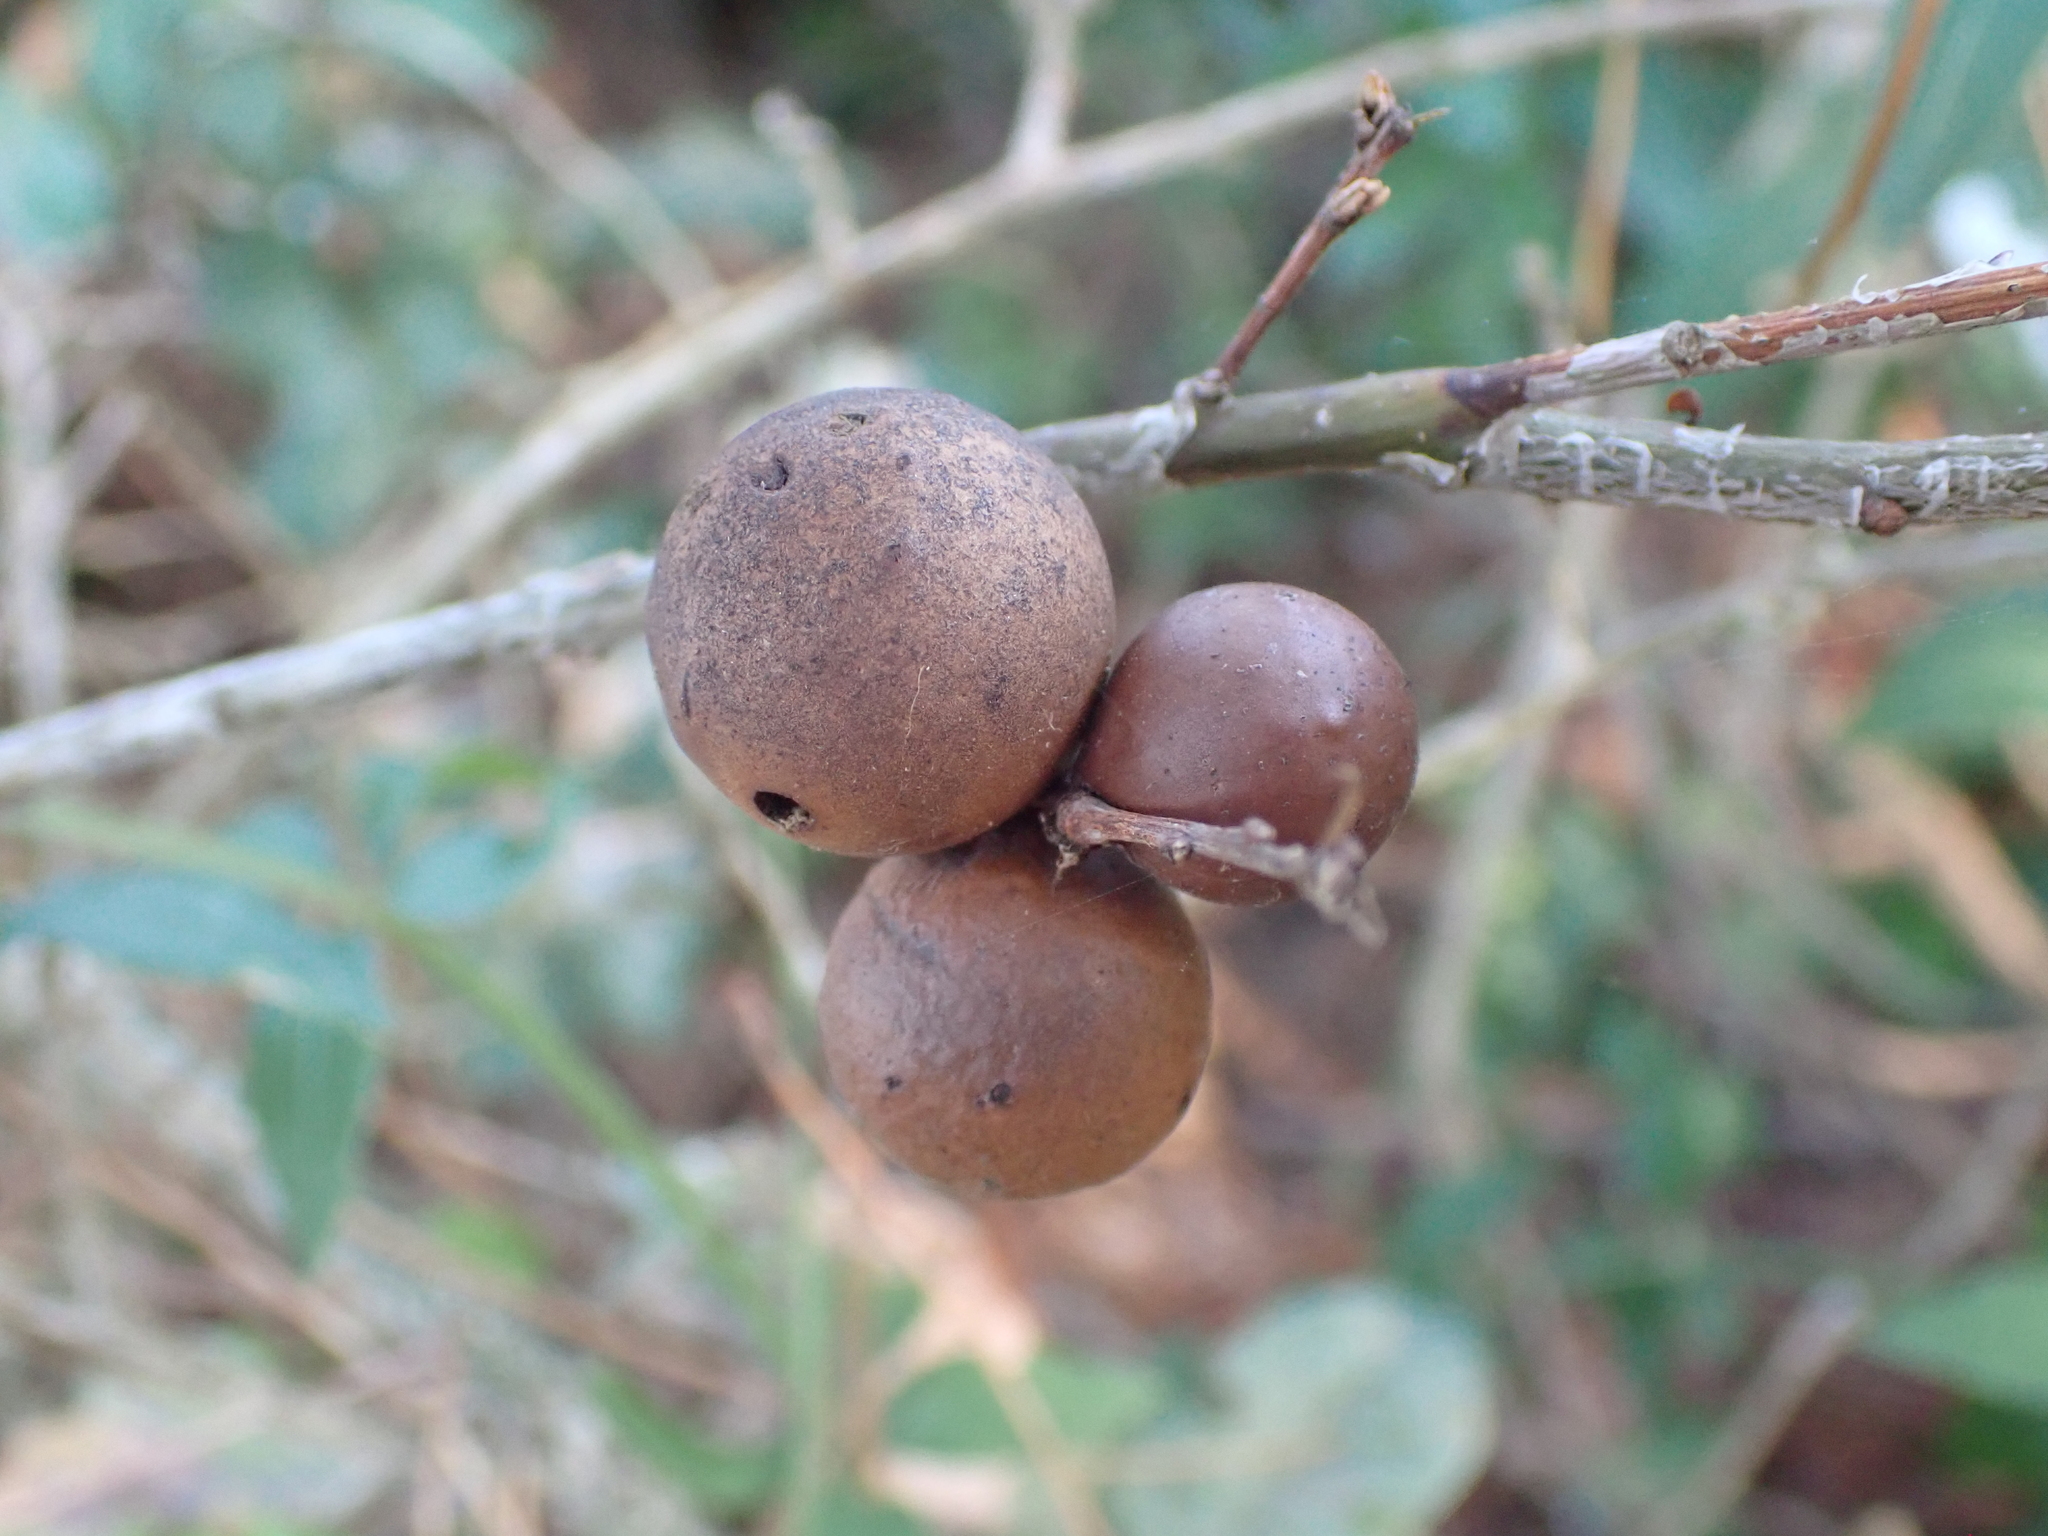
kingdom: Animalia
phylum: Arthropoda
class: Insecta
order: Hymenoptera
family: Cynipidae
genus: Andricus
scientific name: Andricus kollari
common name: Marble gall
